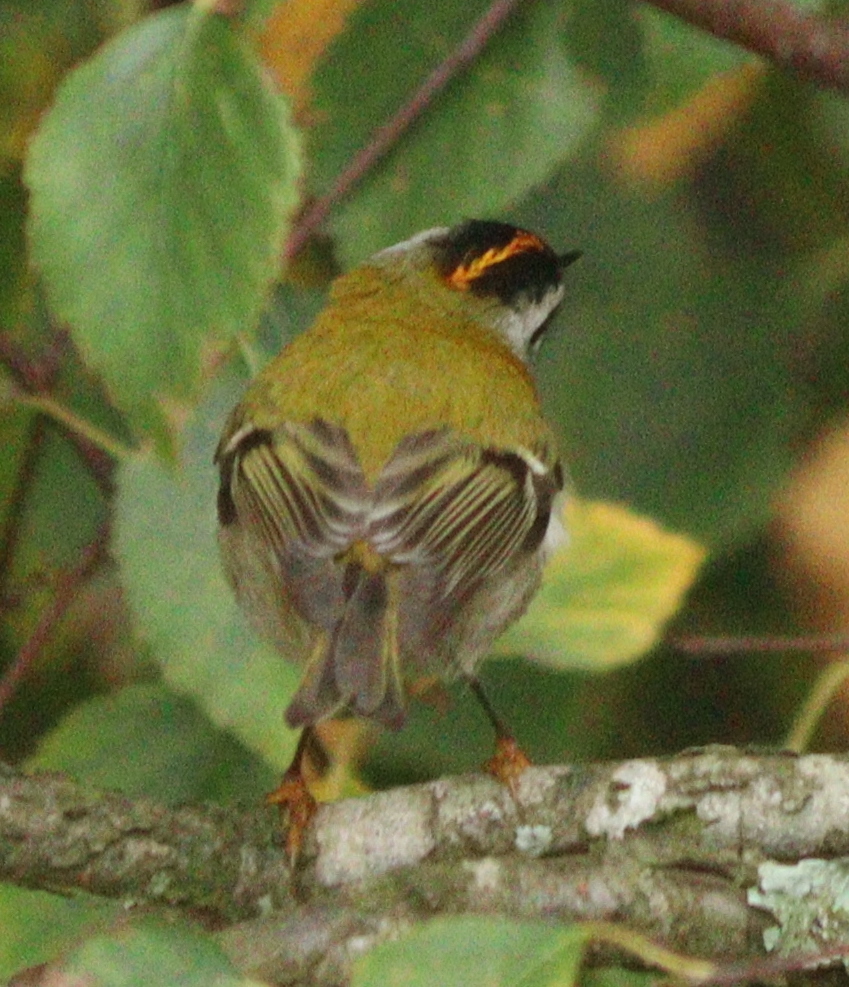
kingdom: Animalia
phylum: Chordata
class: Aves
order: Passeriformes
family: Regulidae
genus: Regulus
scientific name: Regulus ignicapilla
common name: Firecrest
